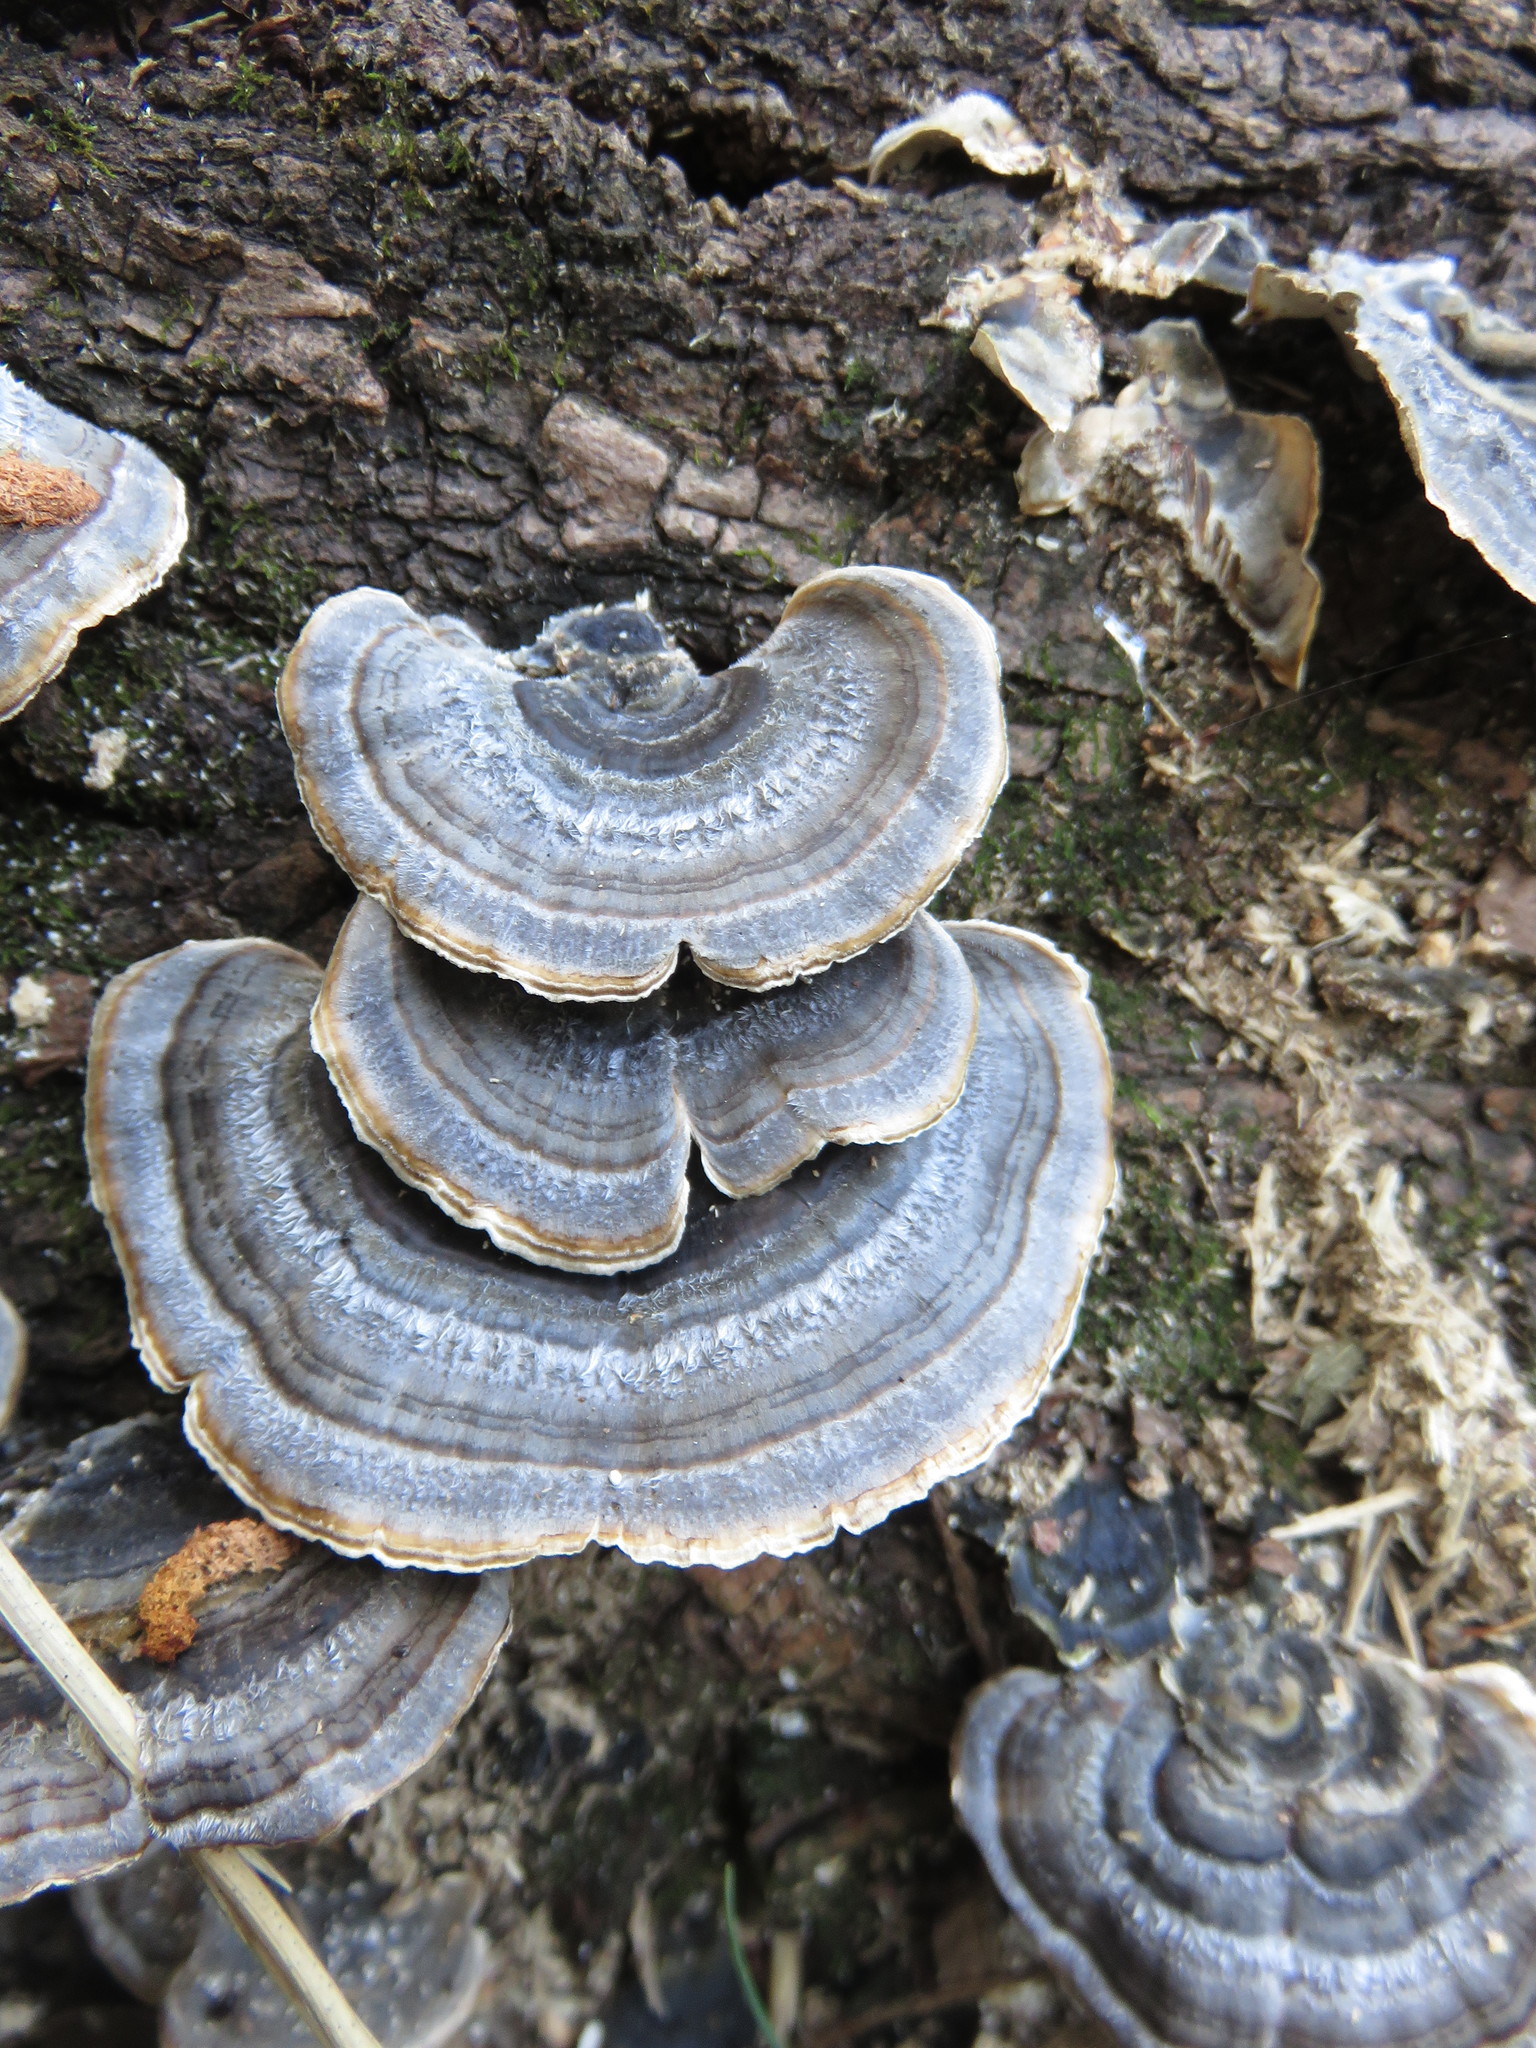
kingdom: Fungi
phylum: Basidiomycota
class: Agaricomycetes
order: Polyporales
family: Polyporaceae
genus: Trametes
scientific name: Trametes versicolor
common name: Turkeytail
